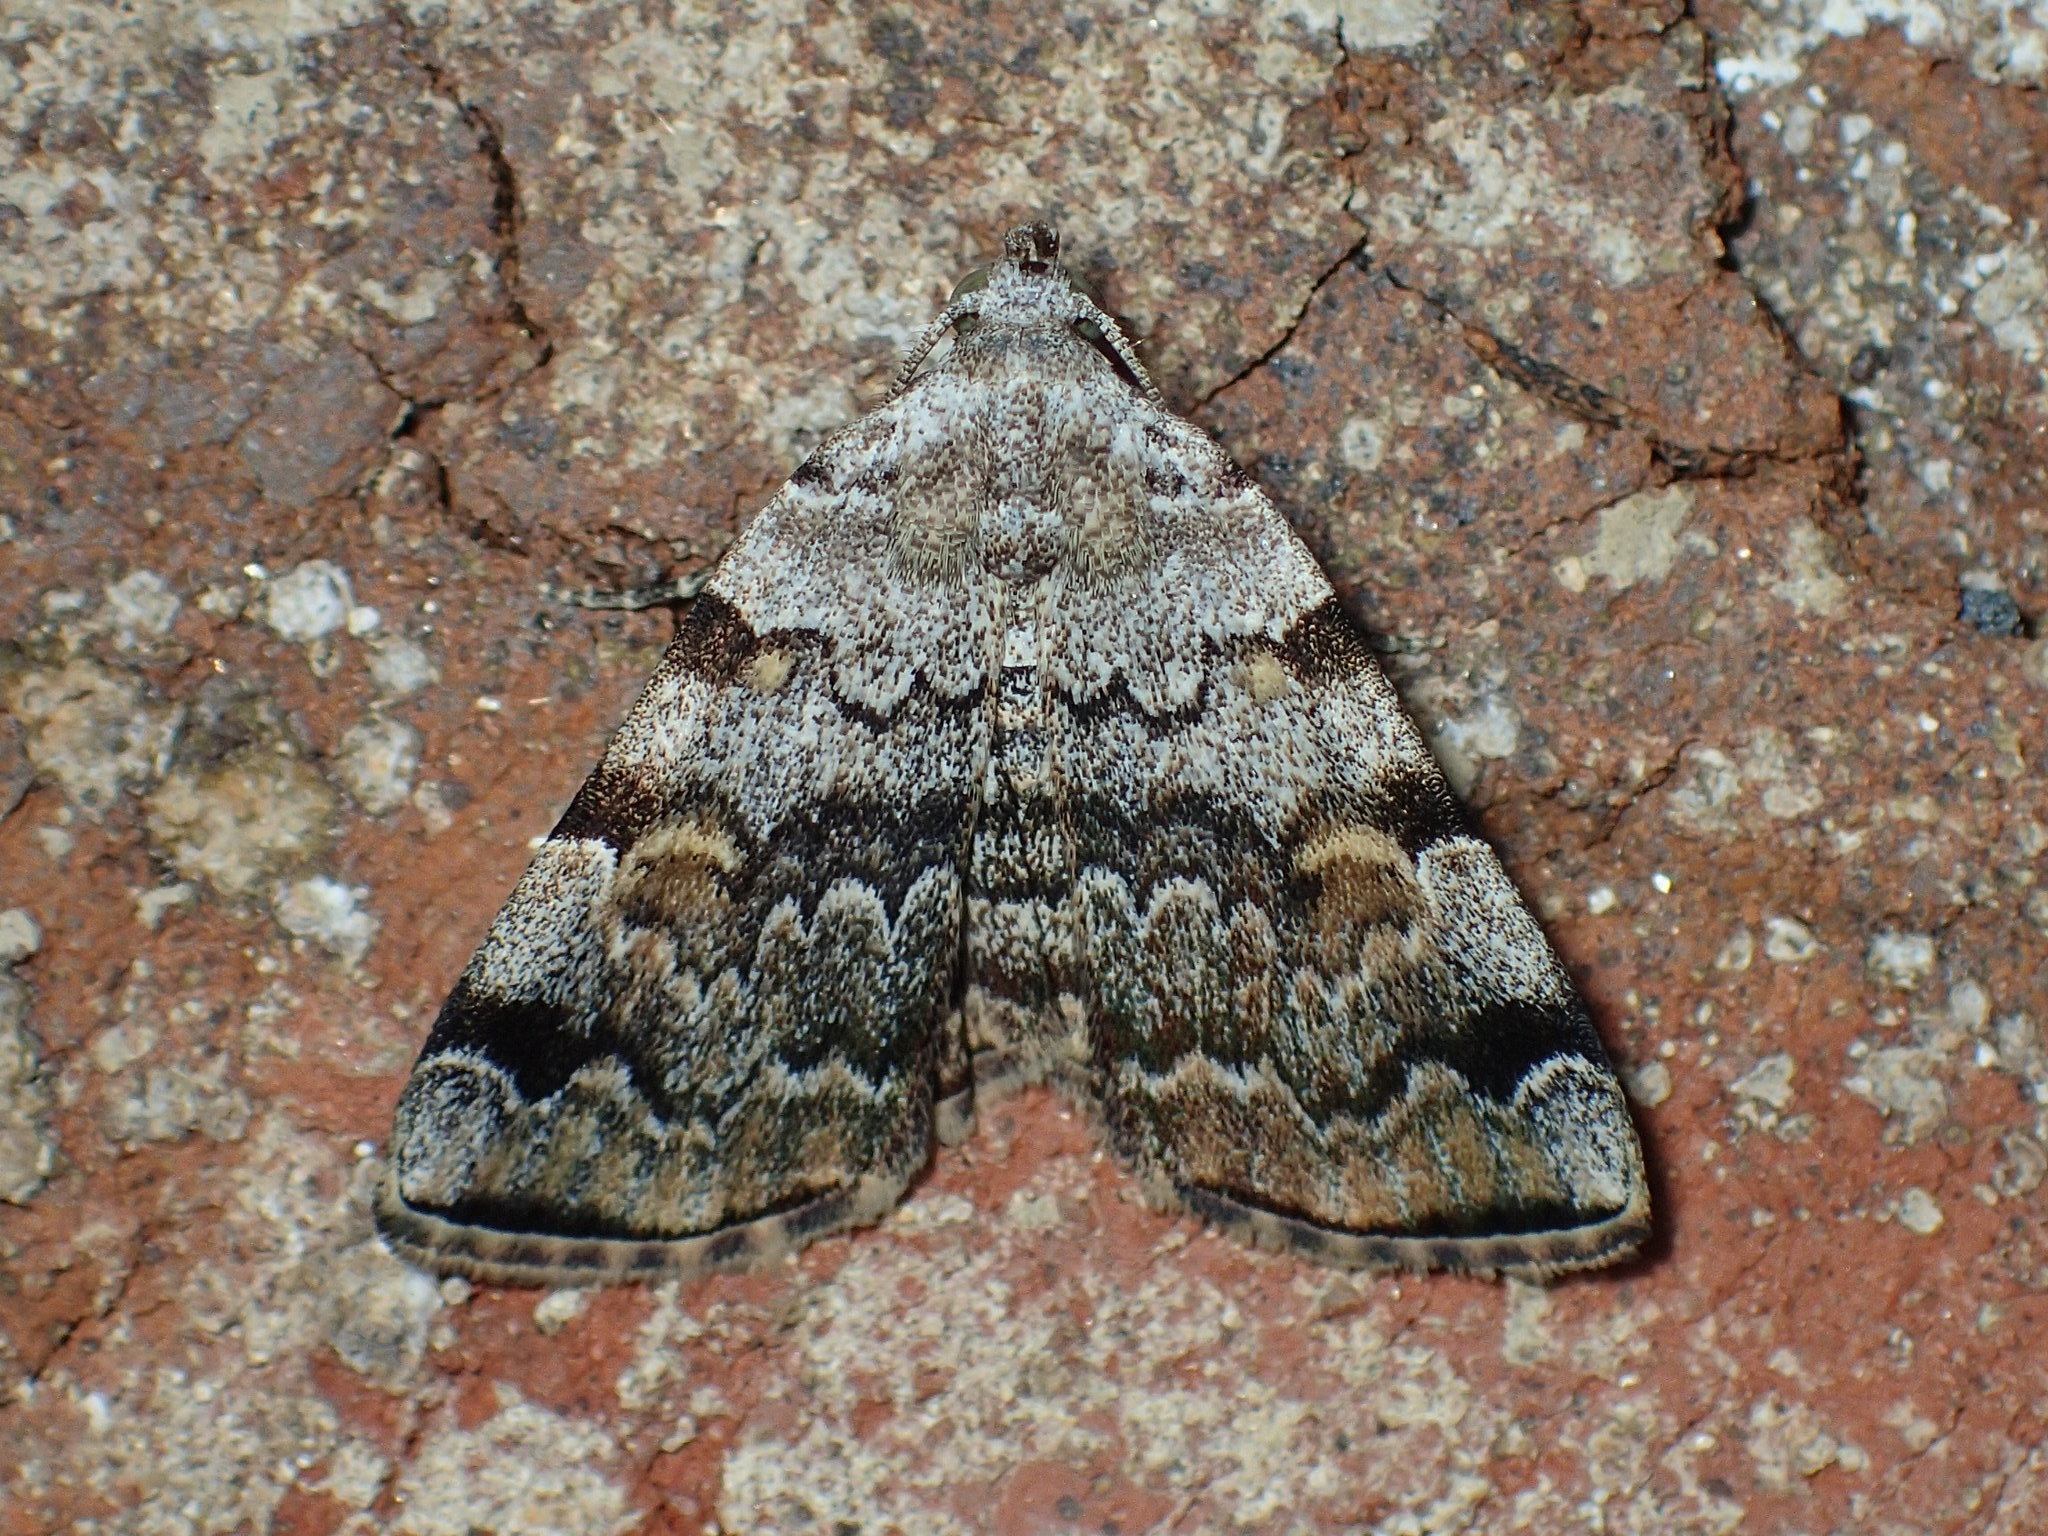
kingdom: Animalia
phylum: Arthropoda
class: Insecta
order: Lepidoptera
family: Erebidae
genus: Idia
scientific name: Idia americalis
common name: American idia moth
